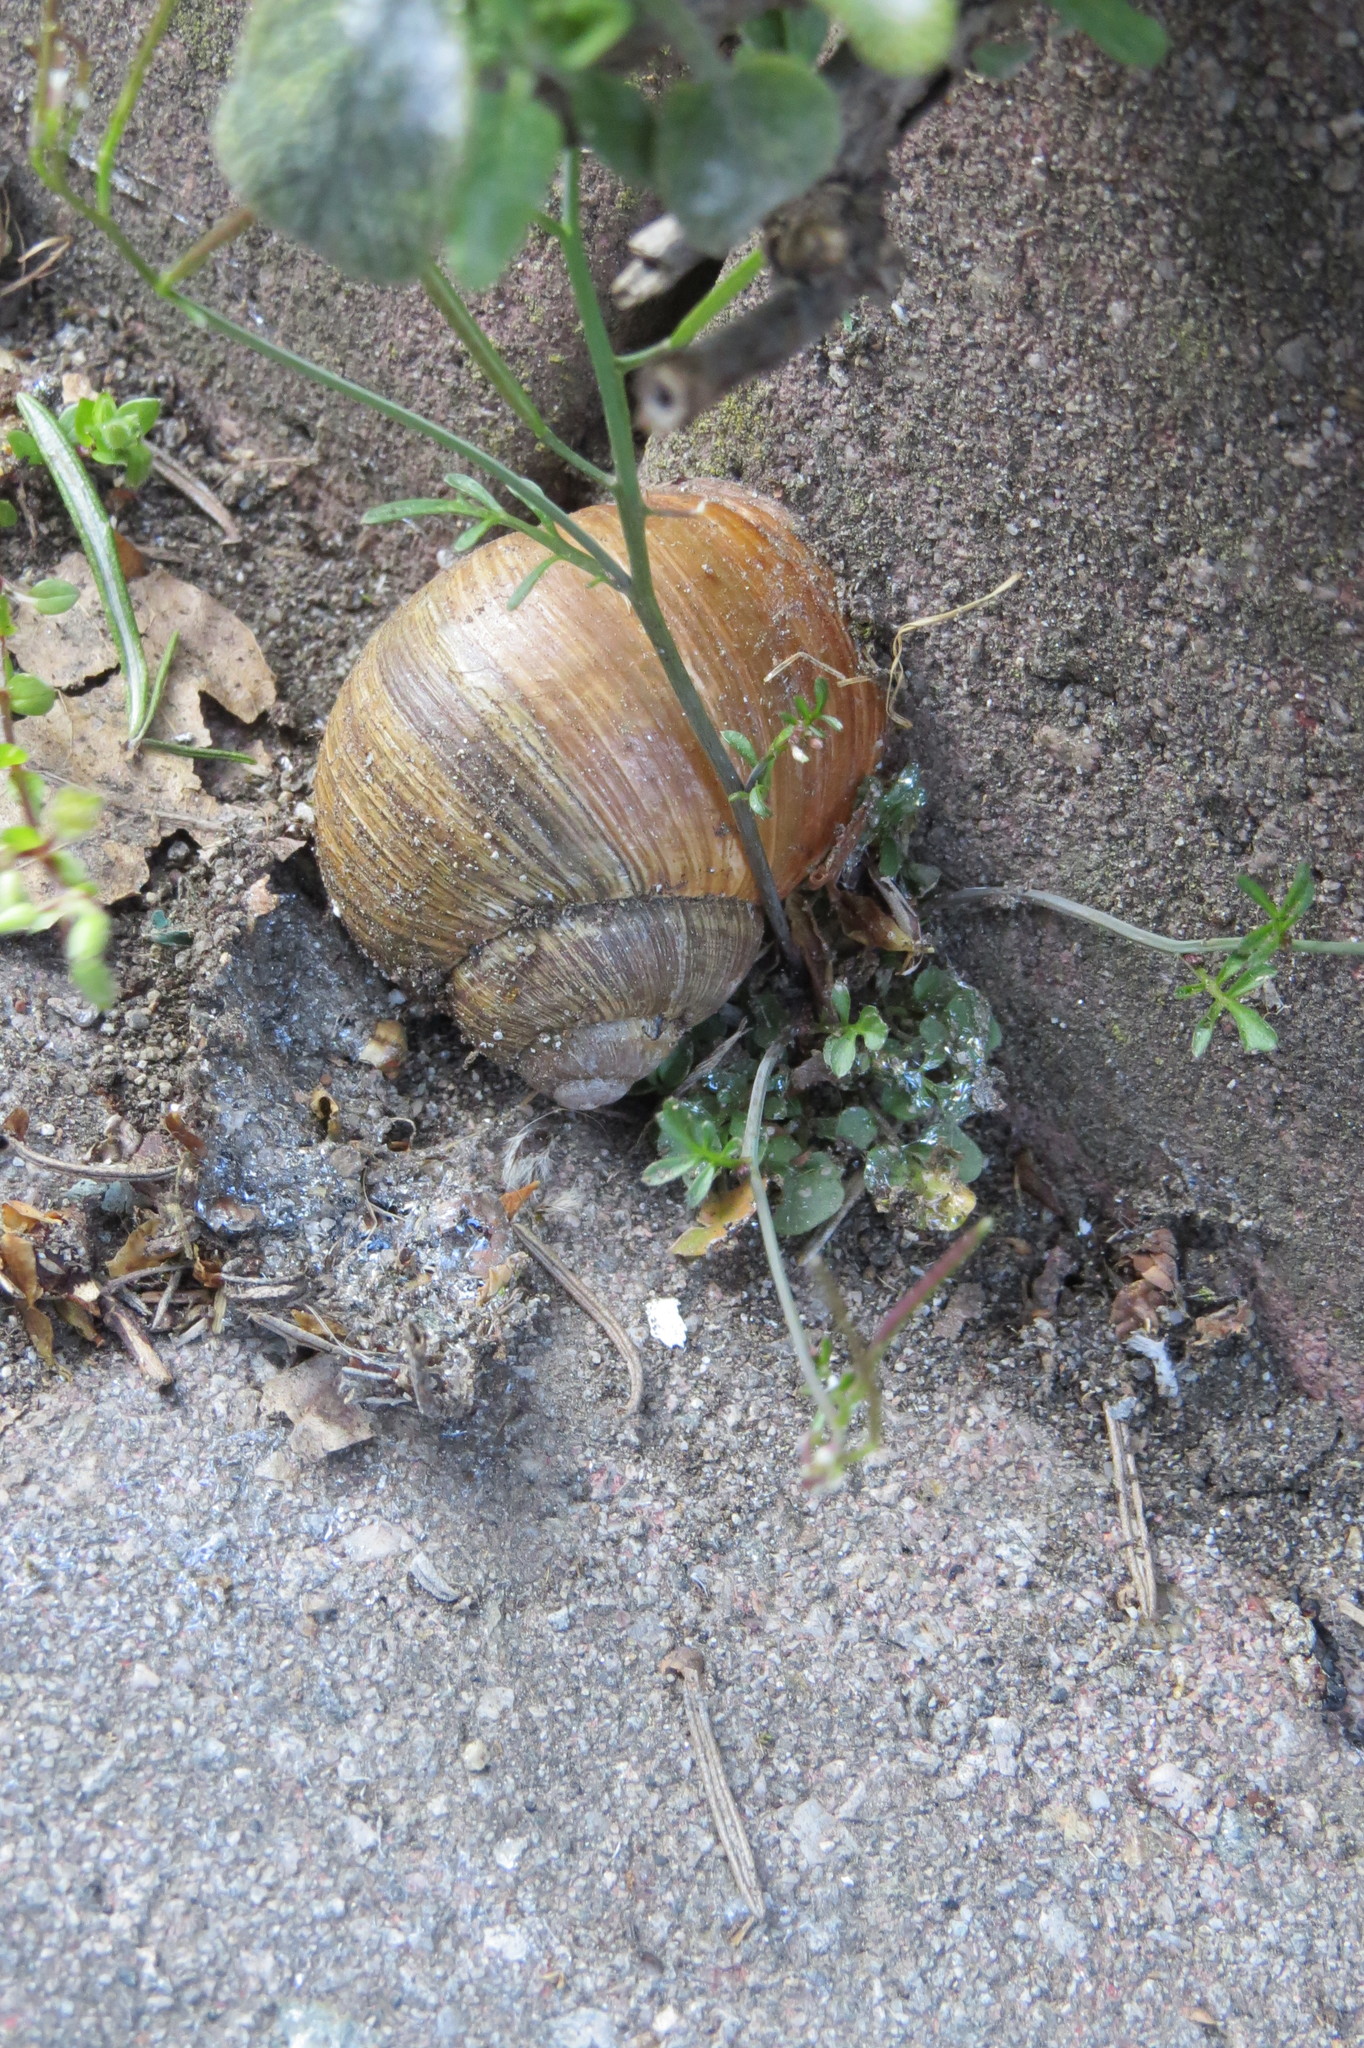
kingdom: Animalia
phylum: Mollusca
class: Gastropoda
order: Stylommatophora
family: Helicidae
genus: Helix
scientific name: Helix pomatia
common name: Roman snail
